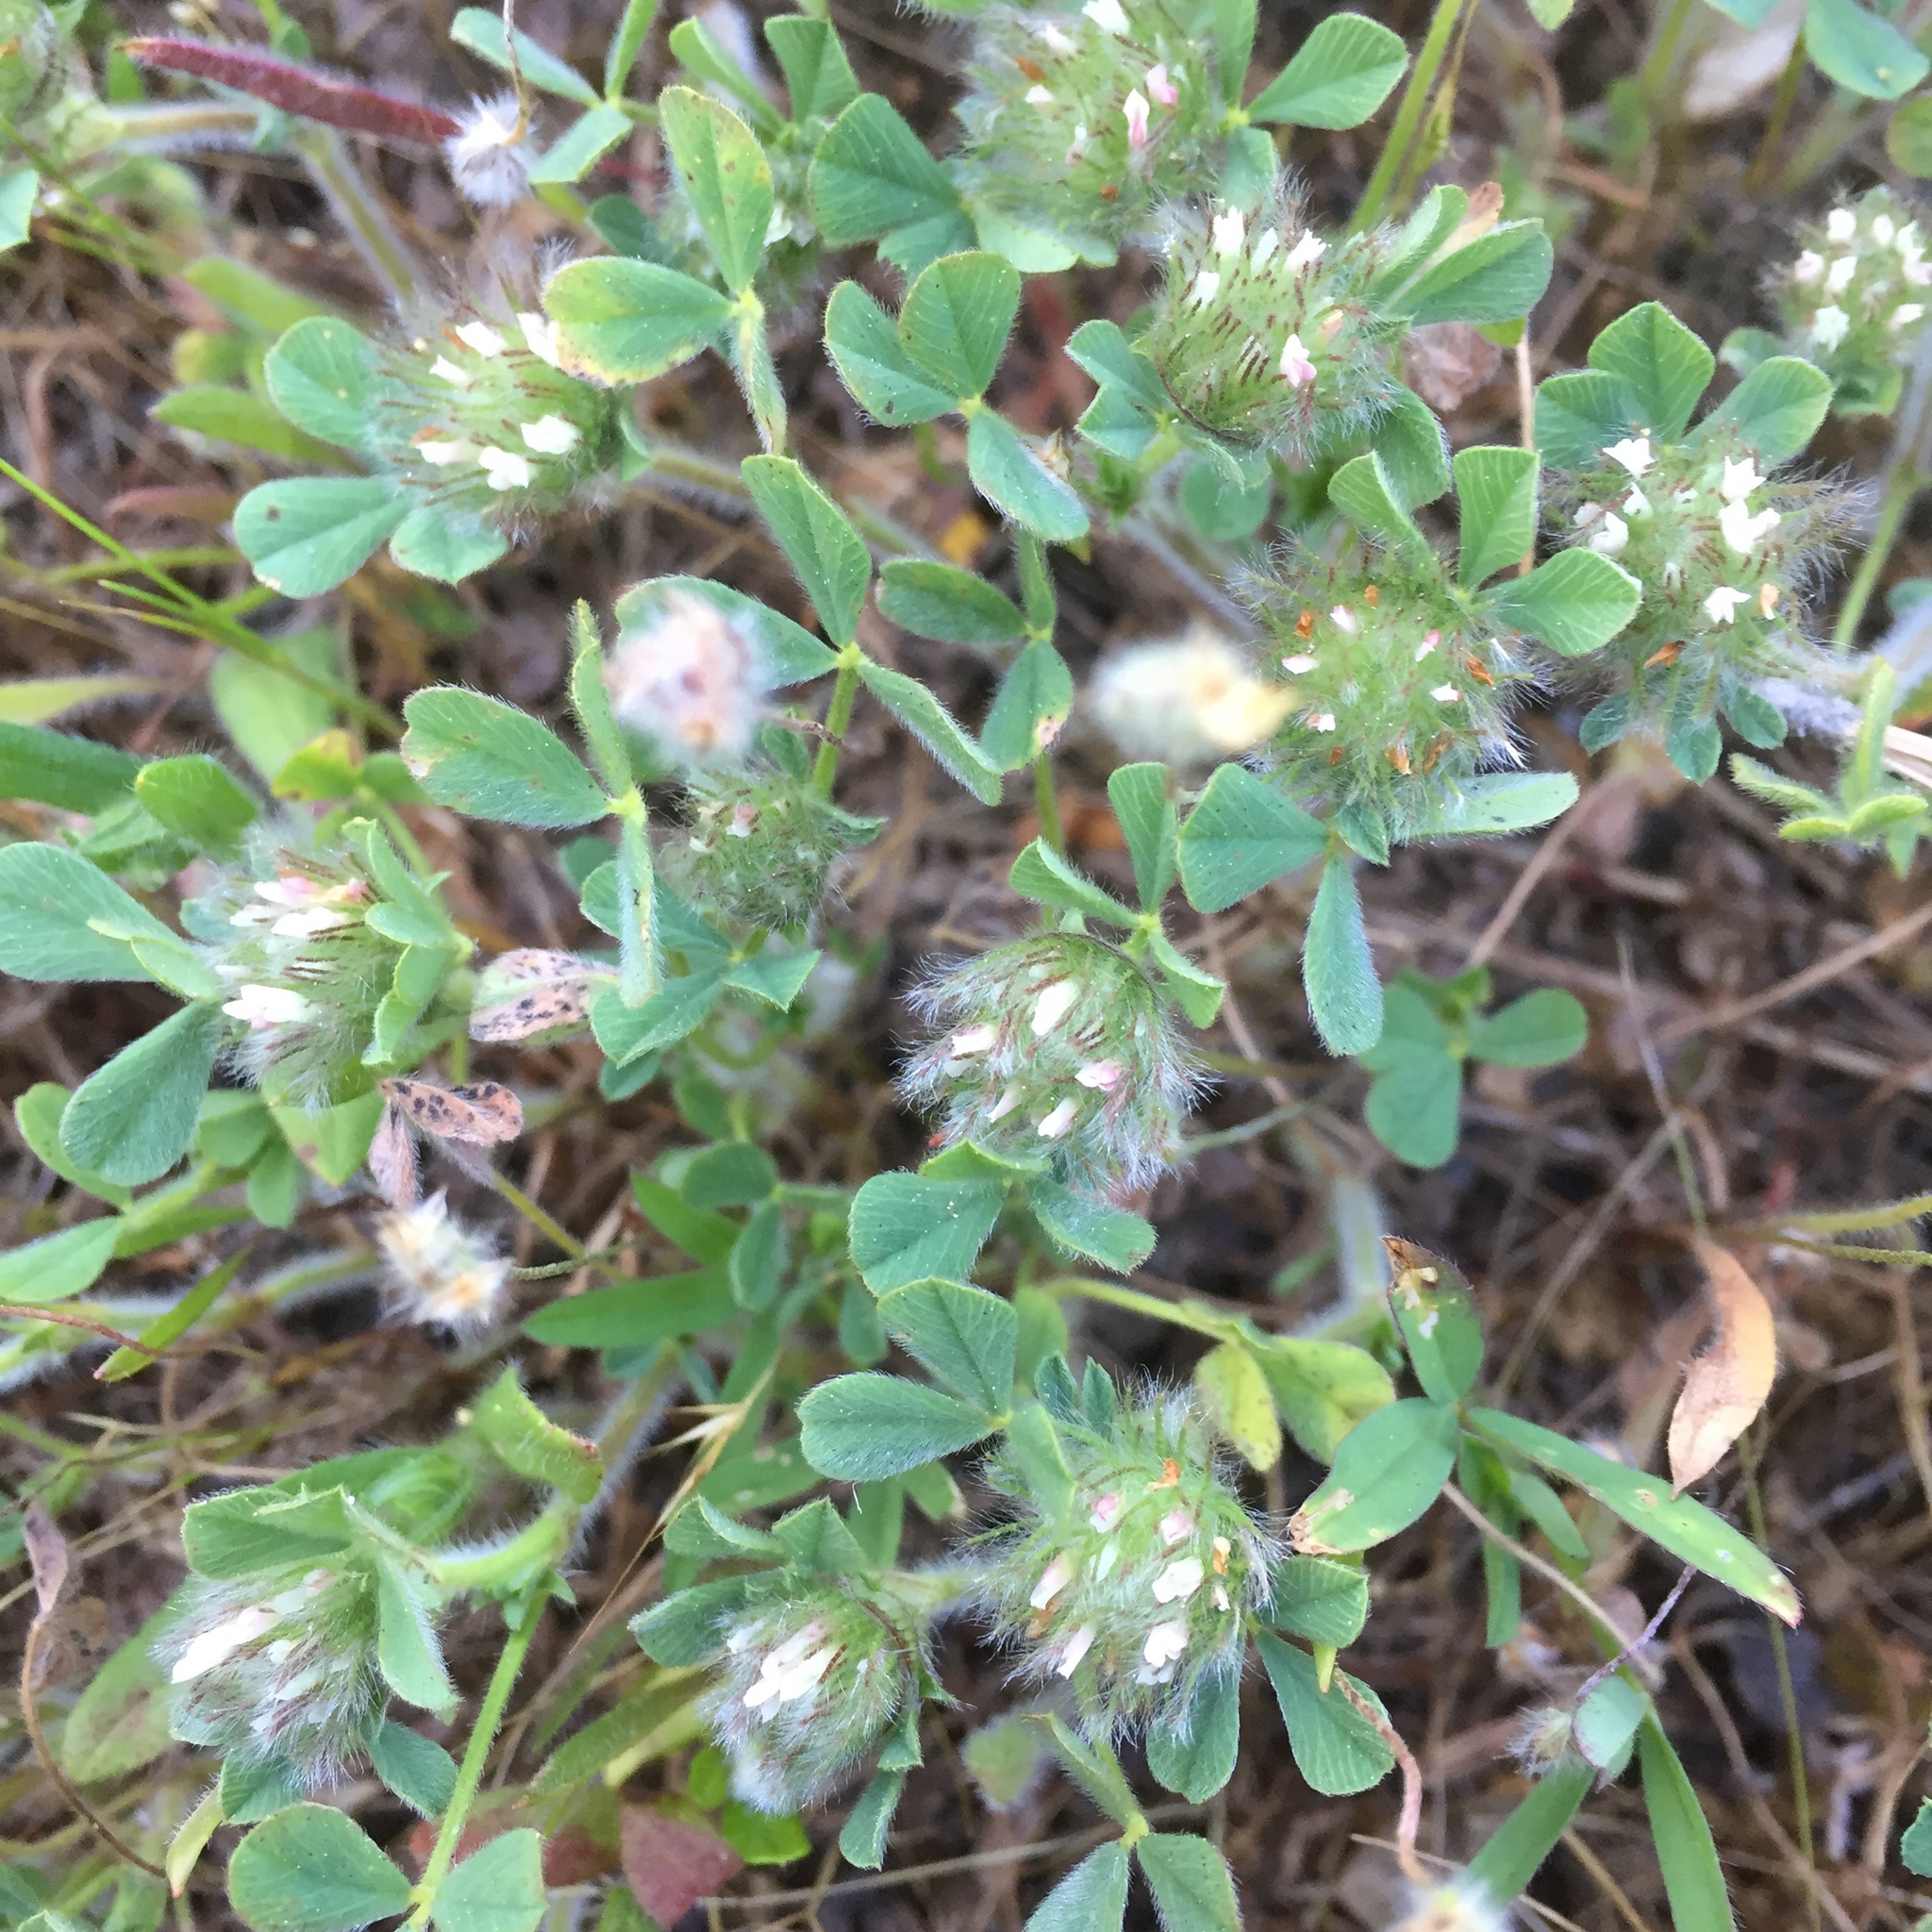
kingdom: Plantae
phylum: Tracheophyta
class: Magnoliopsida
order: Fabales
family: Fabaceae
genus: Trifolium
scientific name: Trifolium cherleri
